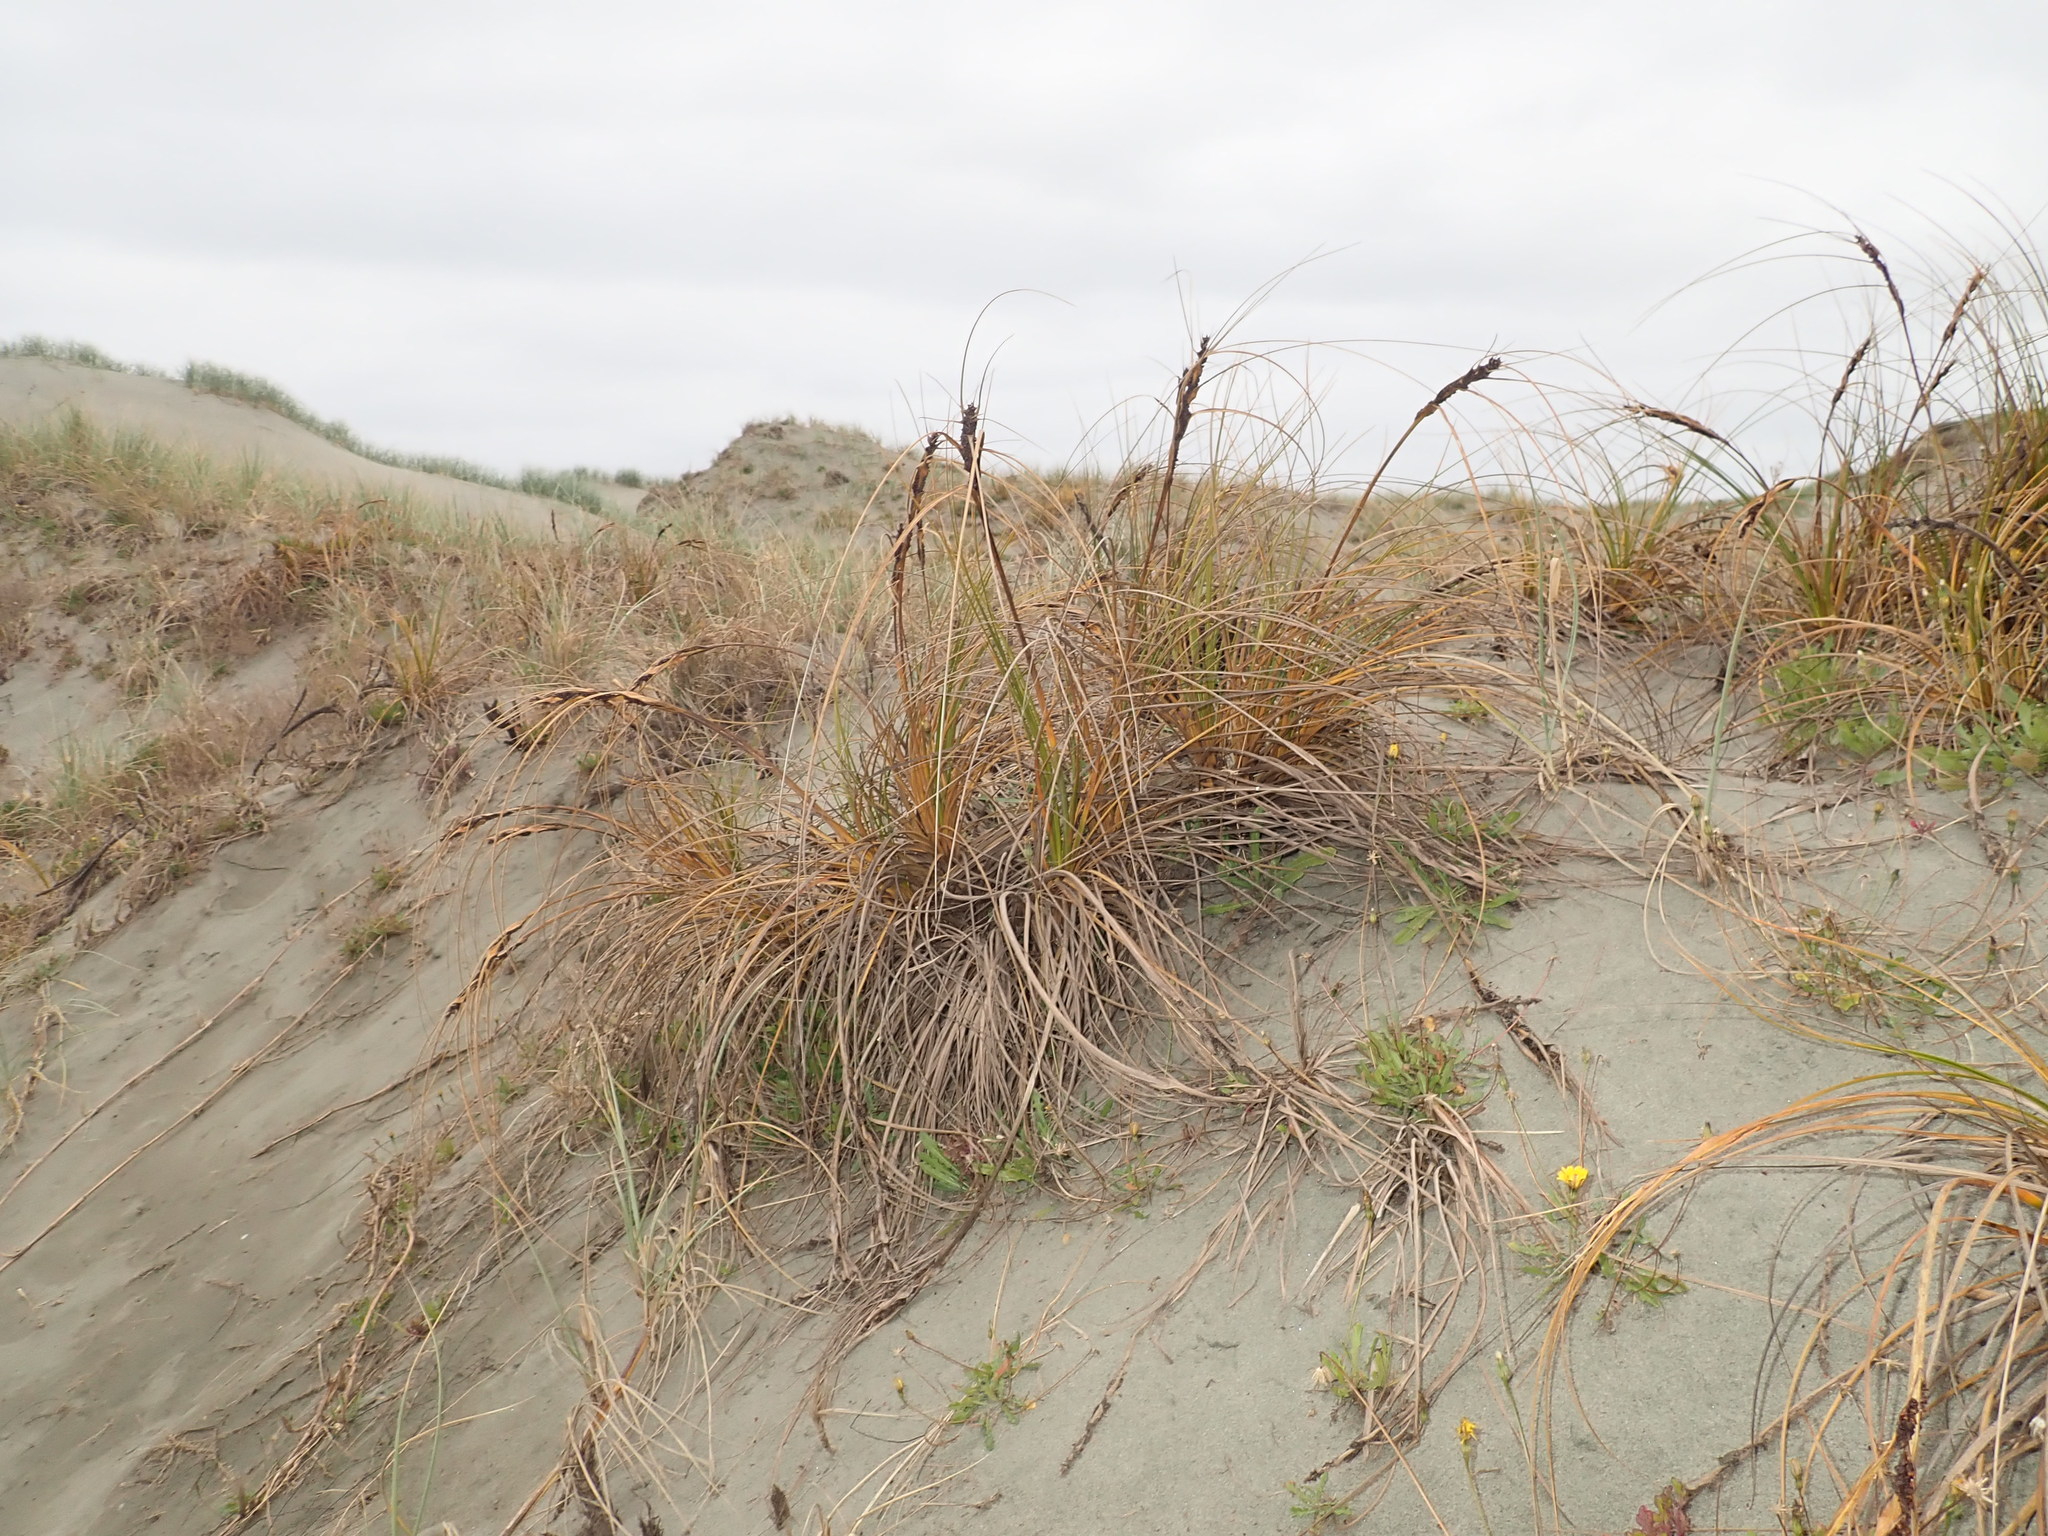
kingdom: Plantae
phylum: Tracheophyta
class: Liliopsida
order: Poales
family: Cyperaceae
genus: Ficinia
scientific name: Ficinia spiralis
